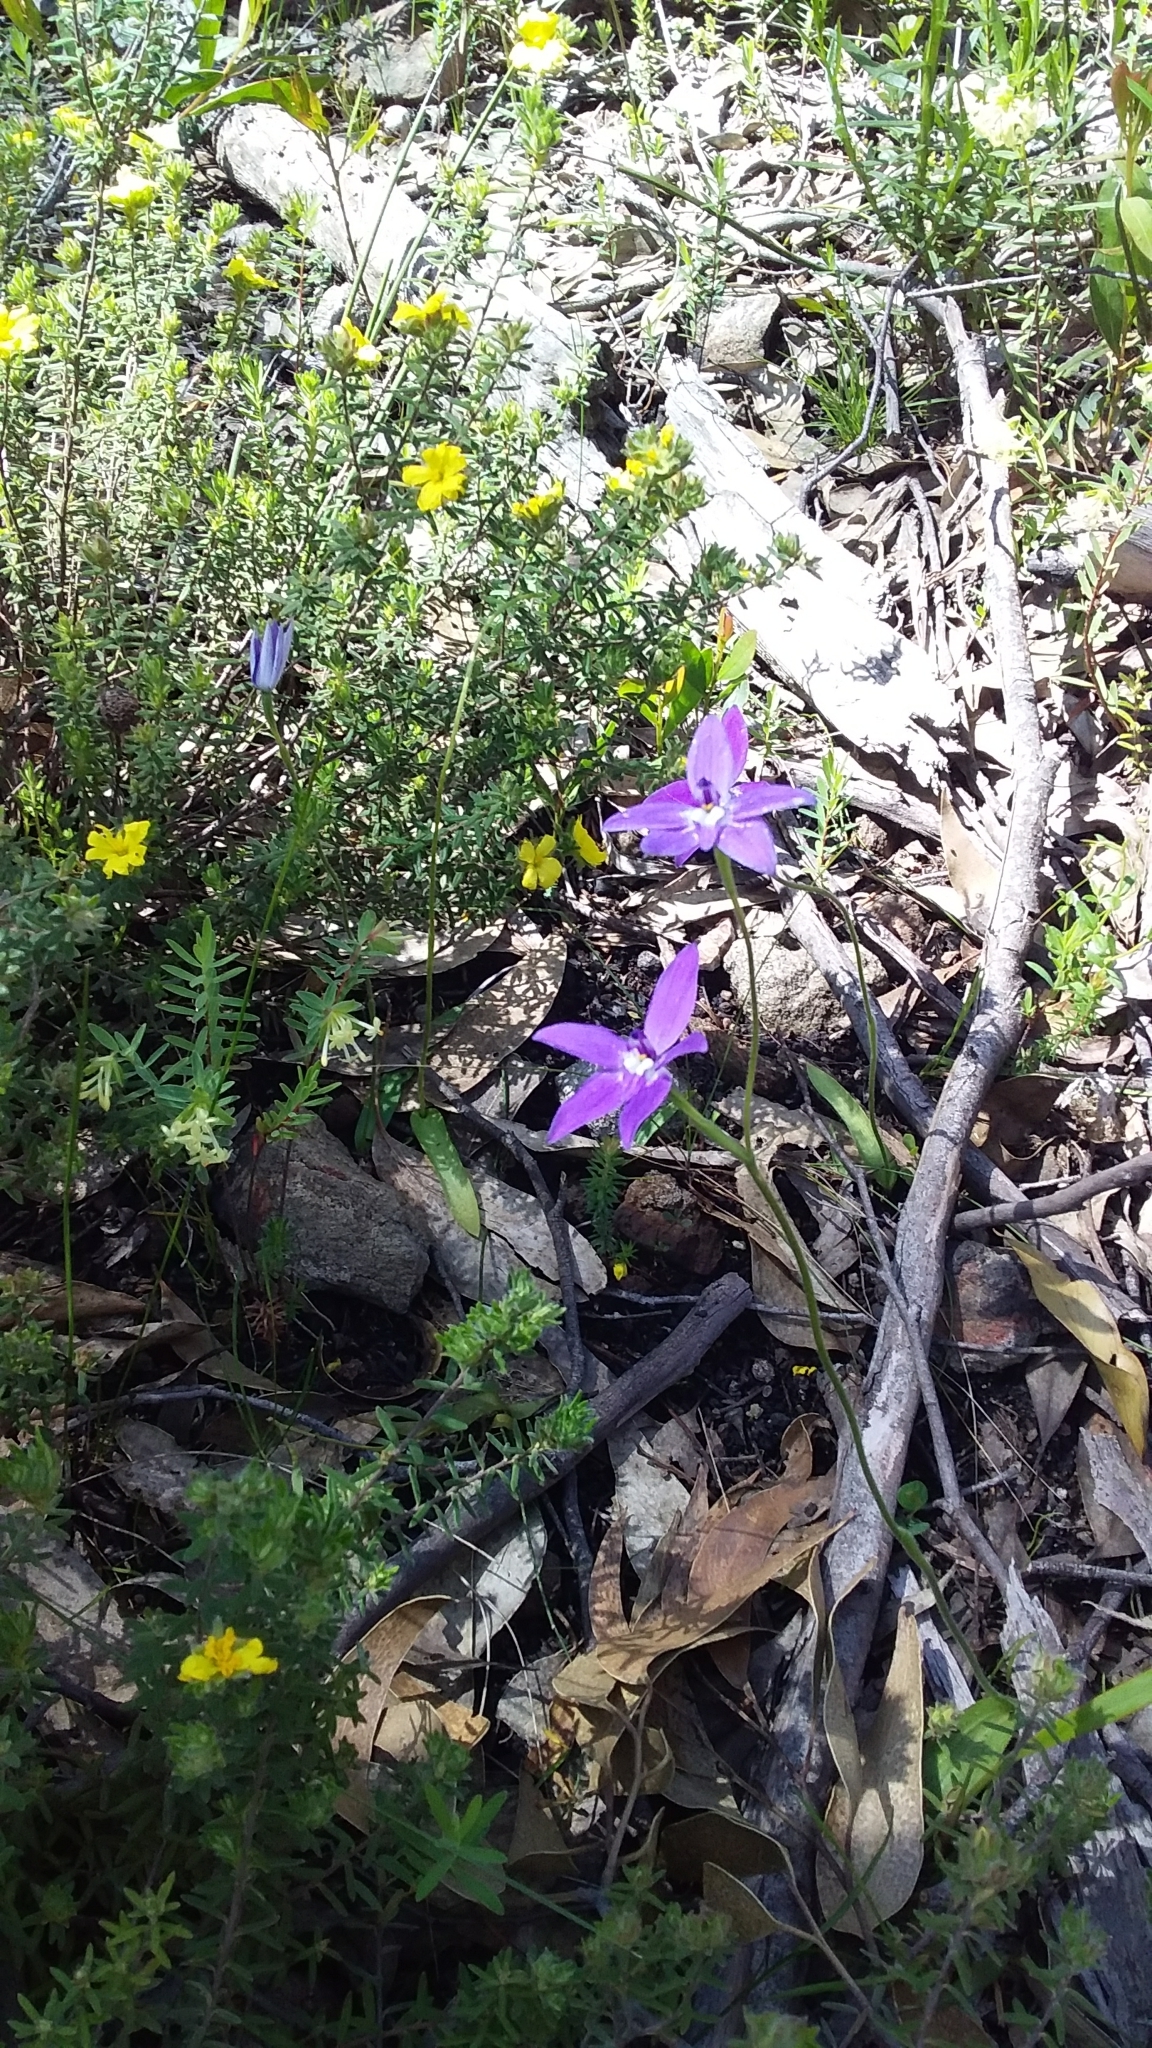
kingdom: Plantae
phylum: Tracheophyta
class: Liliopsida
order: Asparagales
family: Orchidaceae
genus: Caladenia
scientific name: Caladenia major
